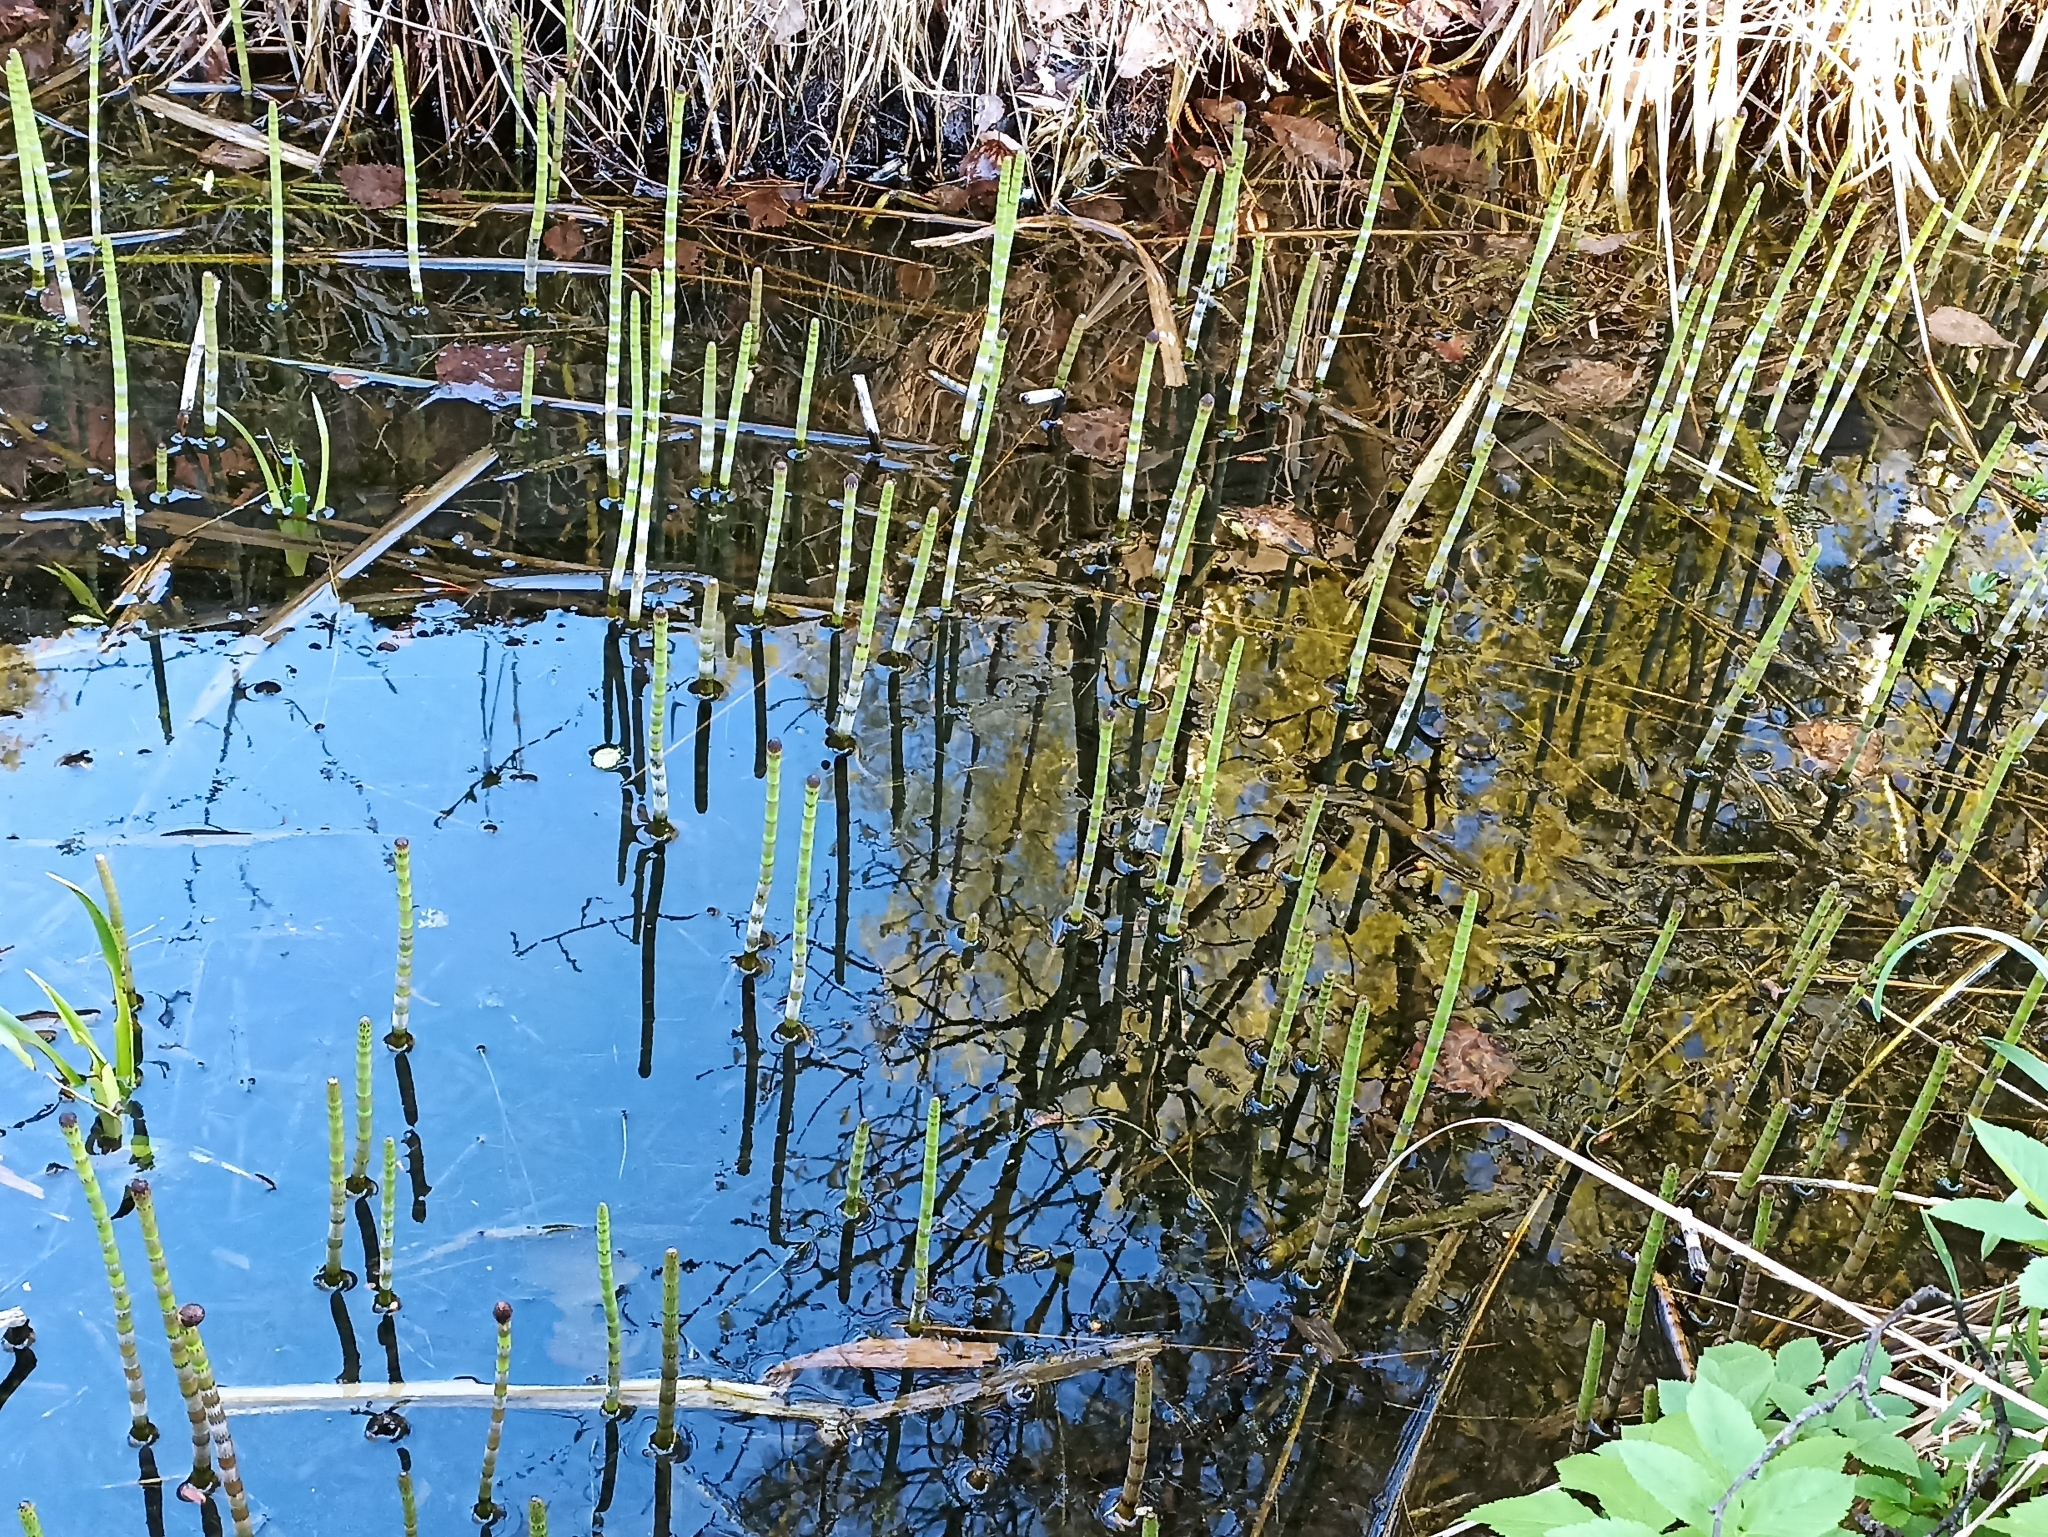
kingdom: Plantae
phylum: Tracheophyta
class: Polypodiopsida
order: Equisetales
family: Equisetaceae
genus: Equisetum
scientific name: Equisetum fluviatile
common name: Water horsetail
